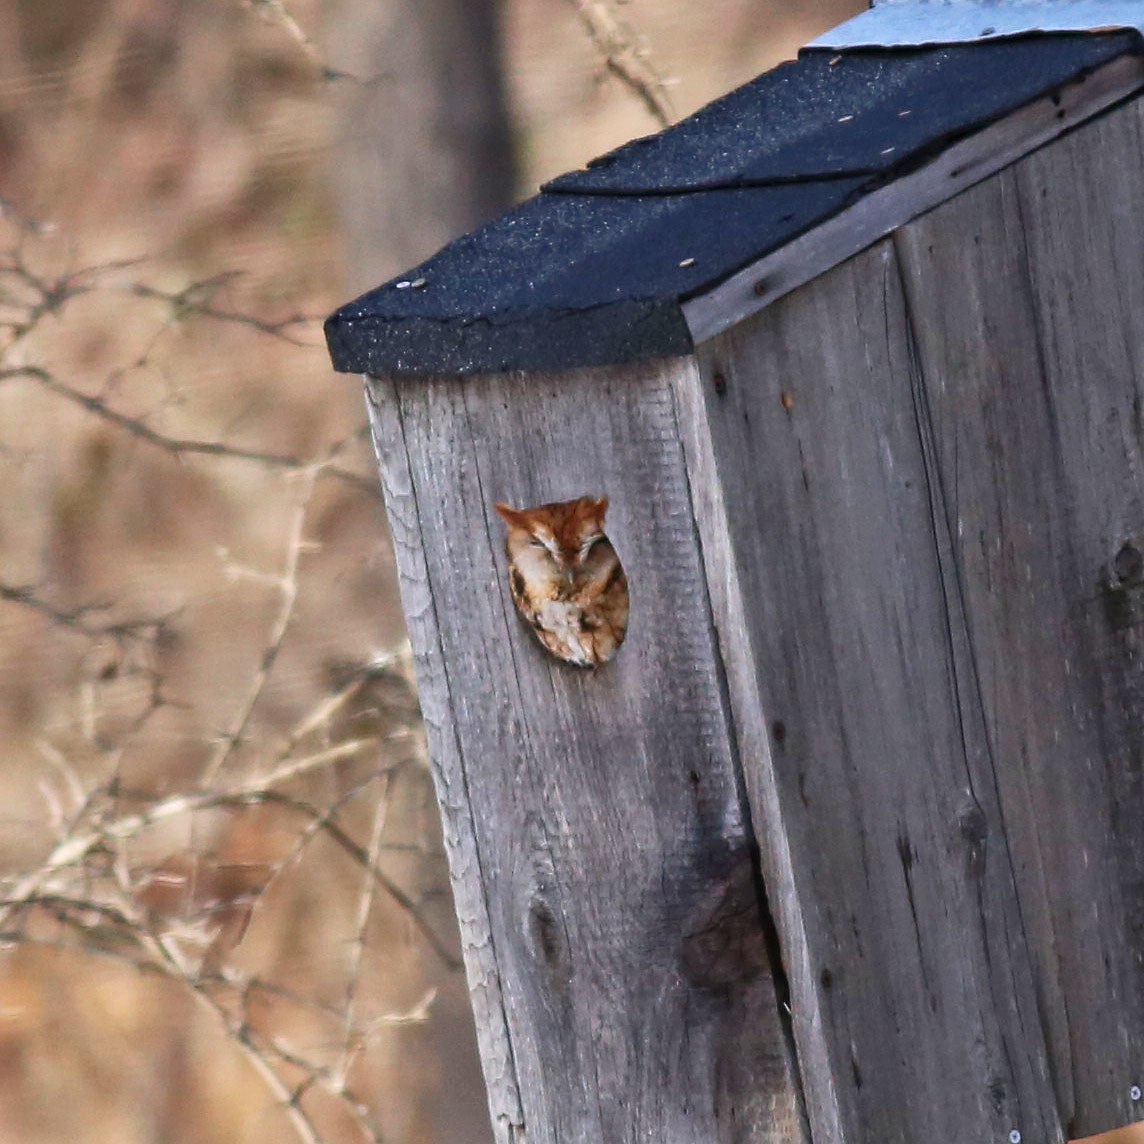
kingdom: Animalia
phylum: Chordata
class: Aves
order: Strigiformes
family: Strigidae
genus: Megascops
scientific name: Megascops asio
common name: Eastern screech-owl
